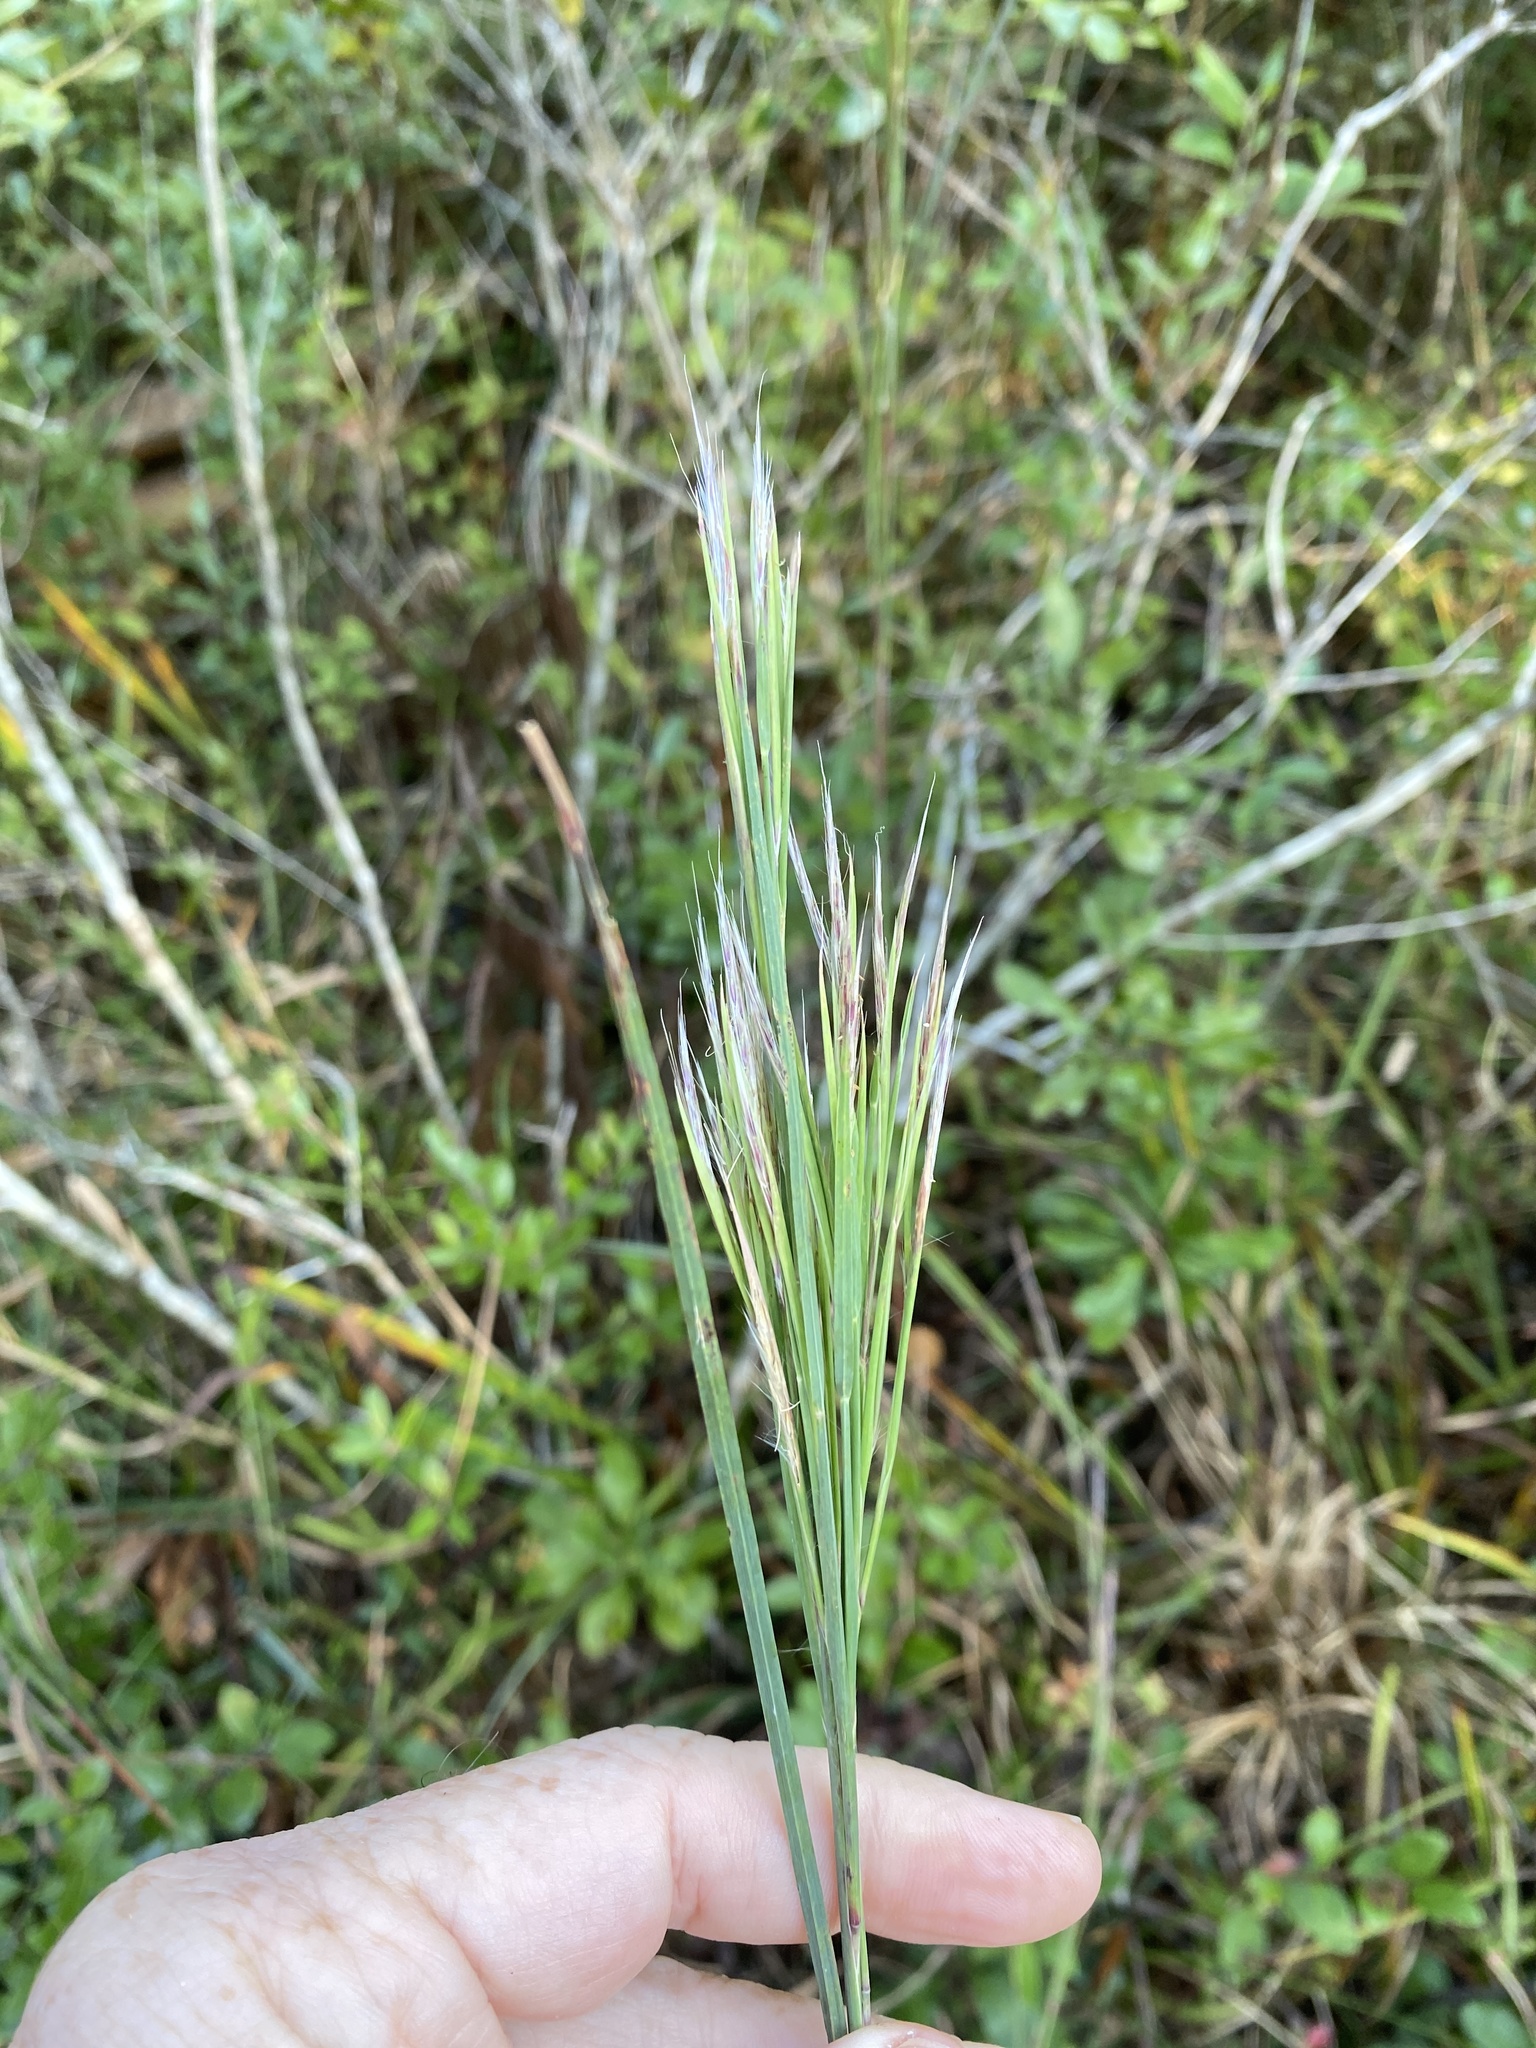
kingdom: Plantae
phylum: Tracheophyta
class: Liliopsida
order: Poales
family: Poaceae
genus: Andropogon
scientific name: Andropogon capillipes
